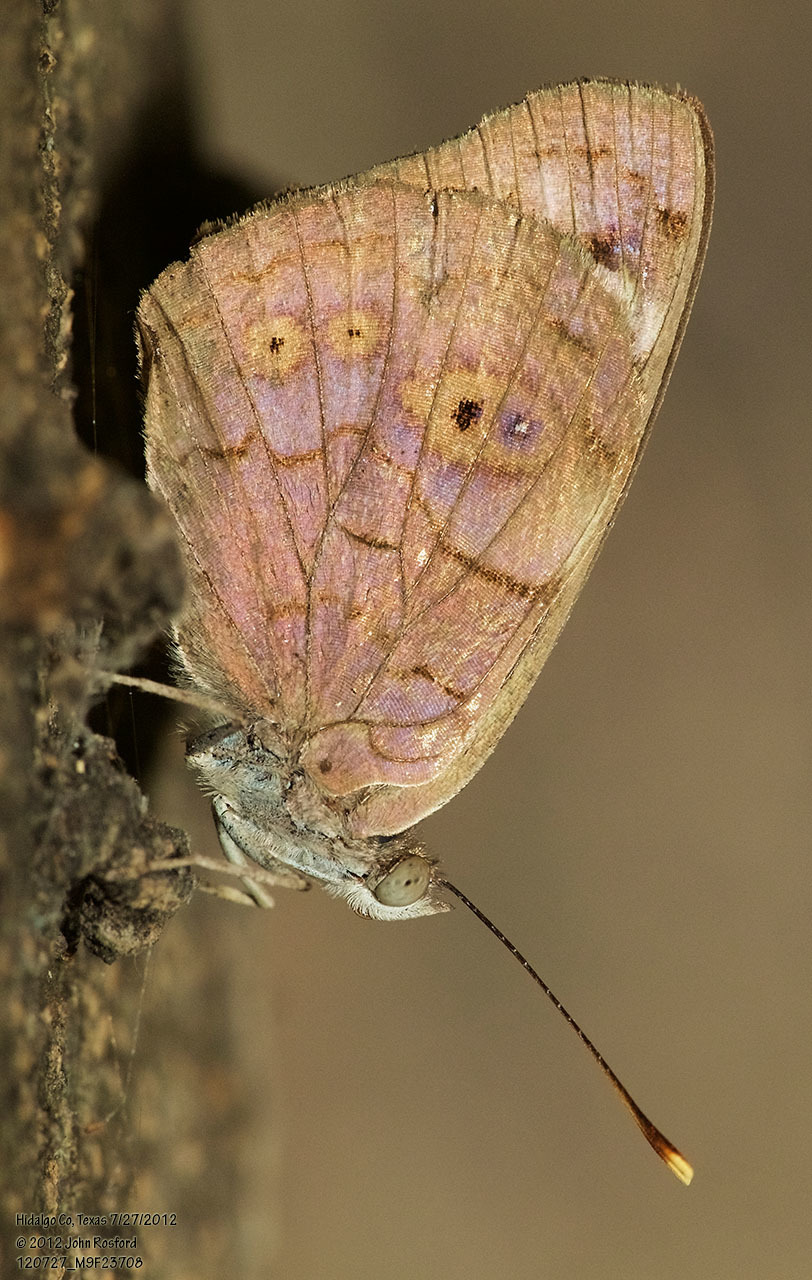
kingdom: Animalia
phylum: Arthropoda
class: Insecta
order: Lepidoptera
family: Nymphalidae
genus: Eunica
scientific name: Eunica monima
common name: Dingy purplewing
